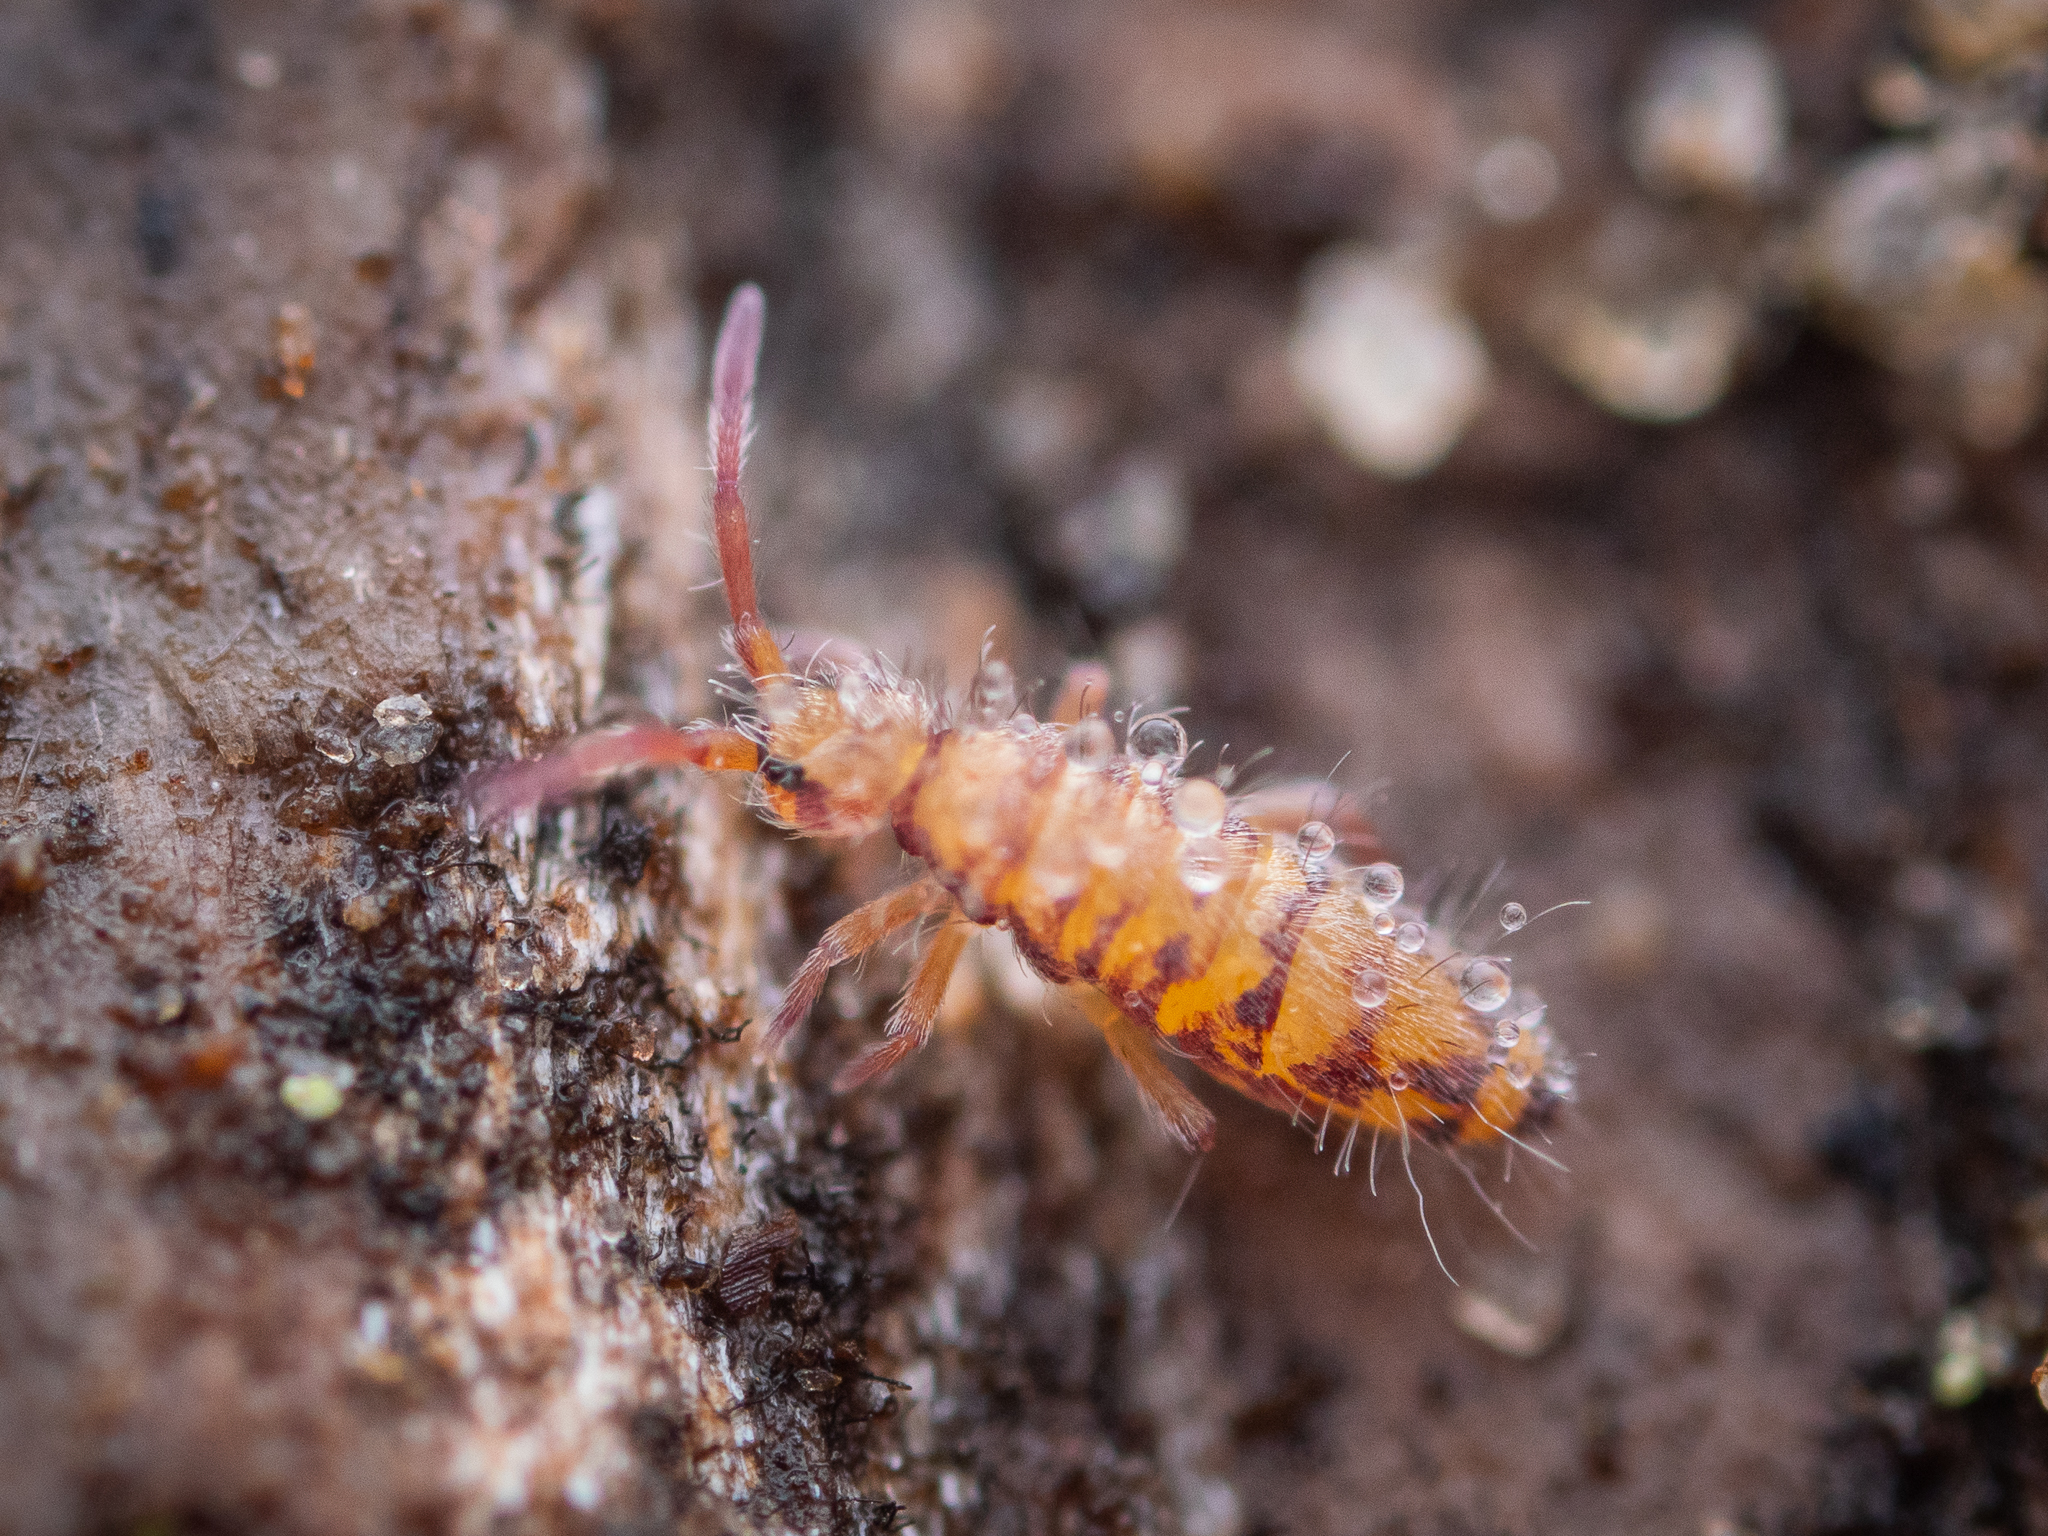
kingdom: Animalia
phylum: Arthropoda
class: Collembola
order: Entomobryomorpha
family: Entomobryidae
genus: Entomobrya
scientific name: Entomobrya multifasciata
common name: Springtail
